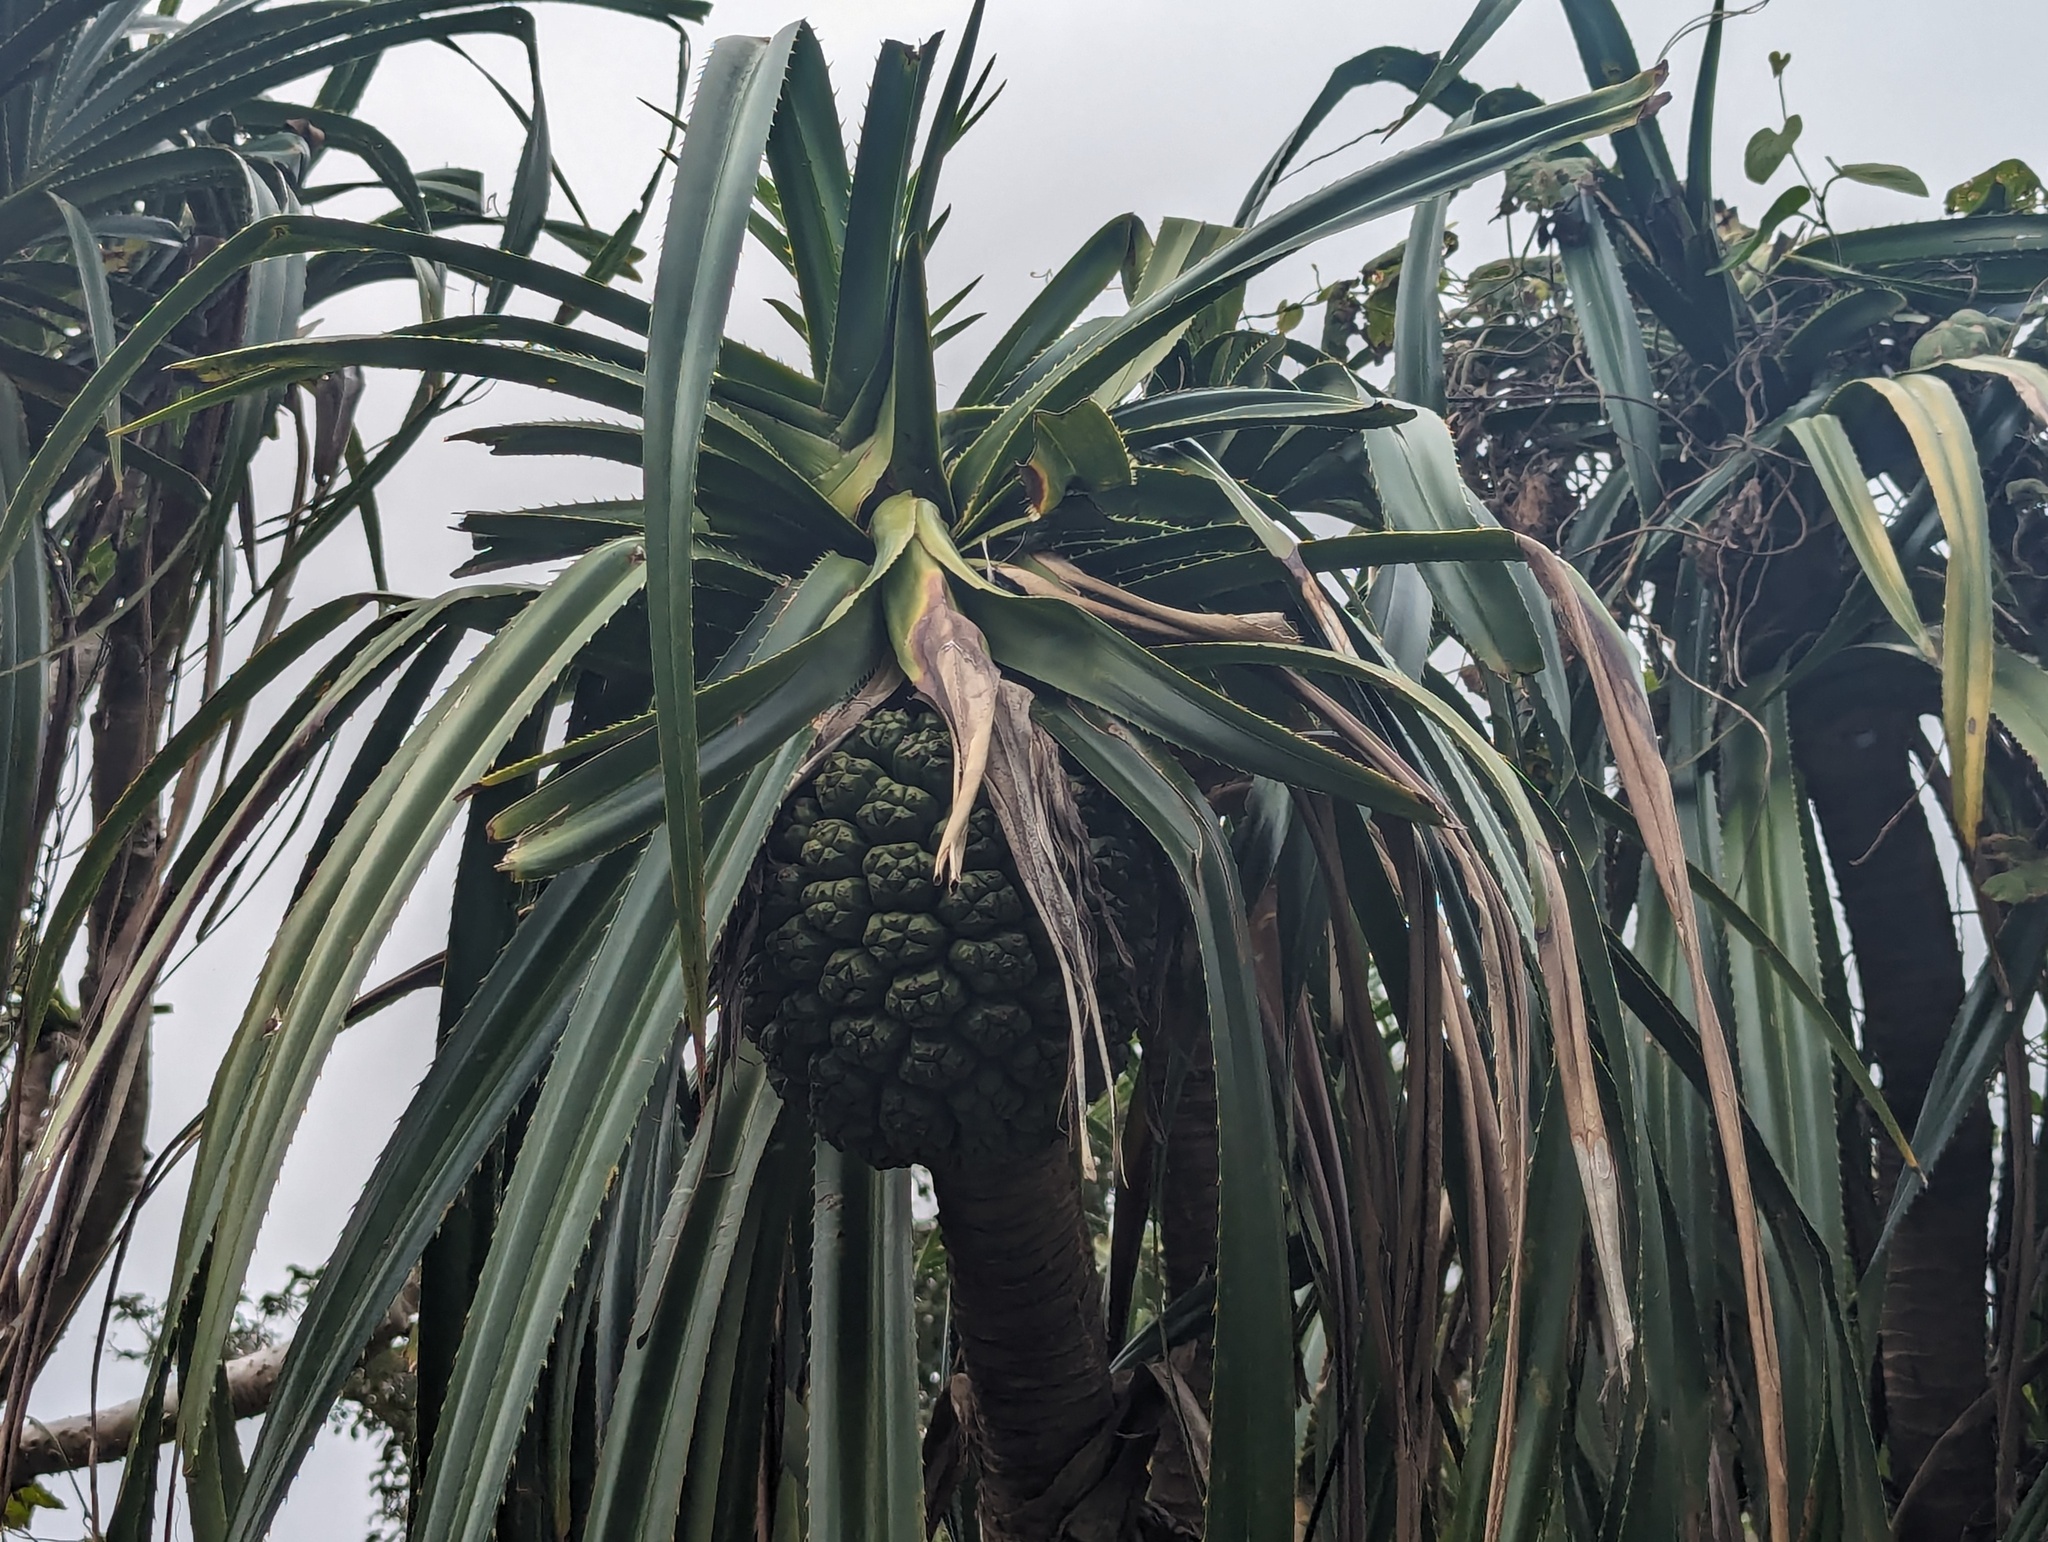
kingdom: Plantae
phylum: Tracheophyta
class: Liliopsida
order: Pandanales
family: Pandanaceae
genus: Pandanus
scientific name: Pandanus odorifer
